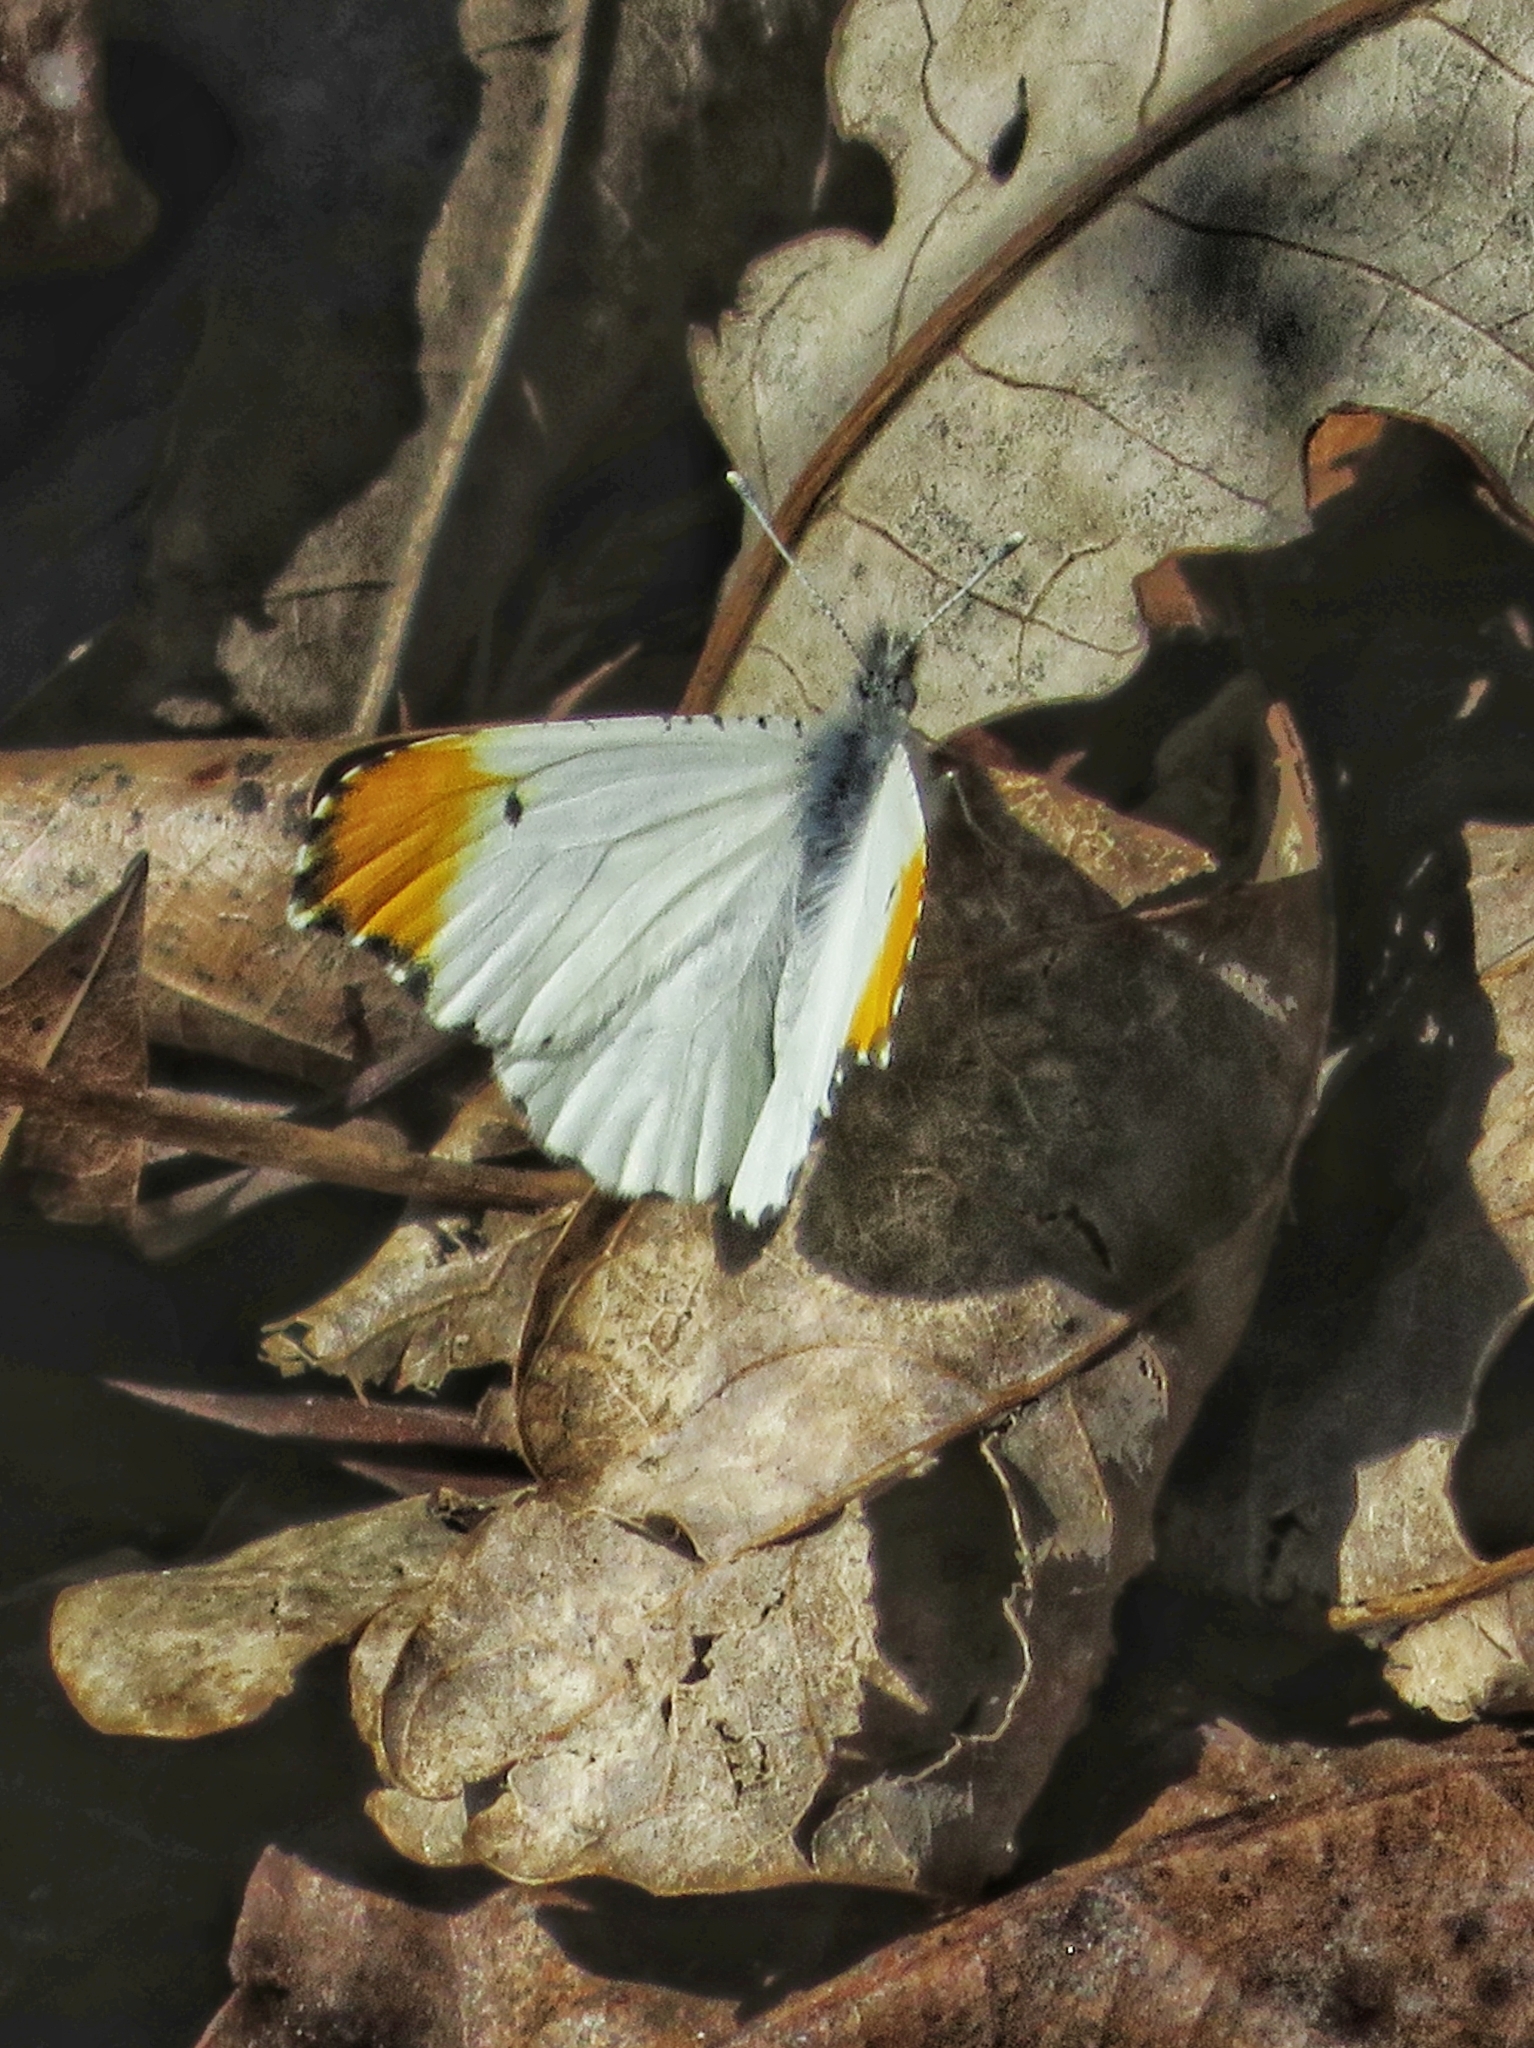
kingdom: Animalia
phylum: Arthropoda
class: Insecta
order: Lepidoptera
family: Pieridae
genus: Anthocharis
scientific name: Anthocharis midea
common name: Falcate orangetip
